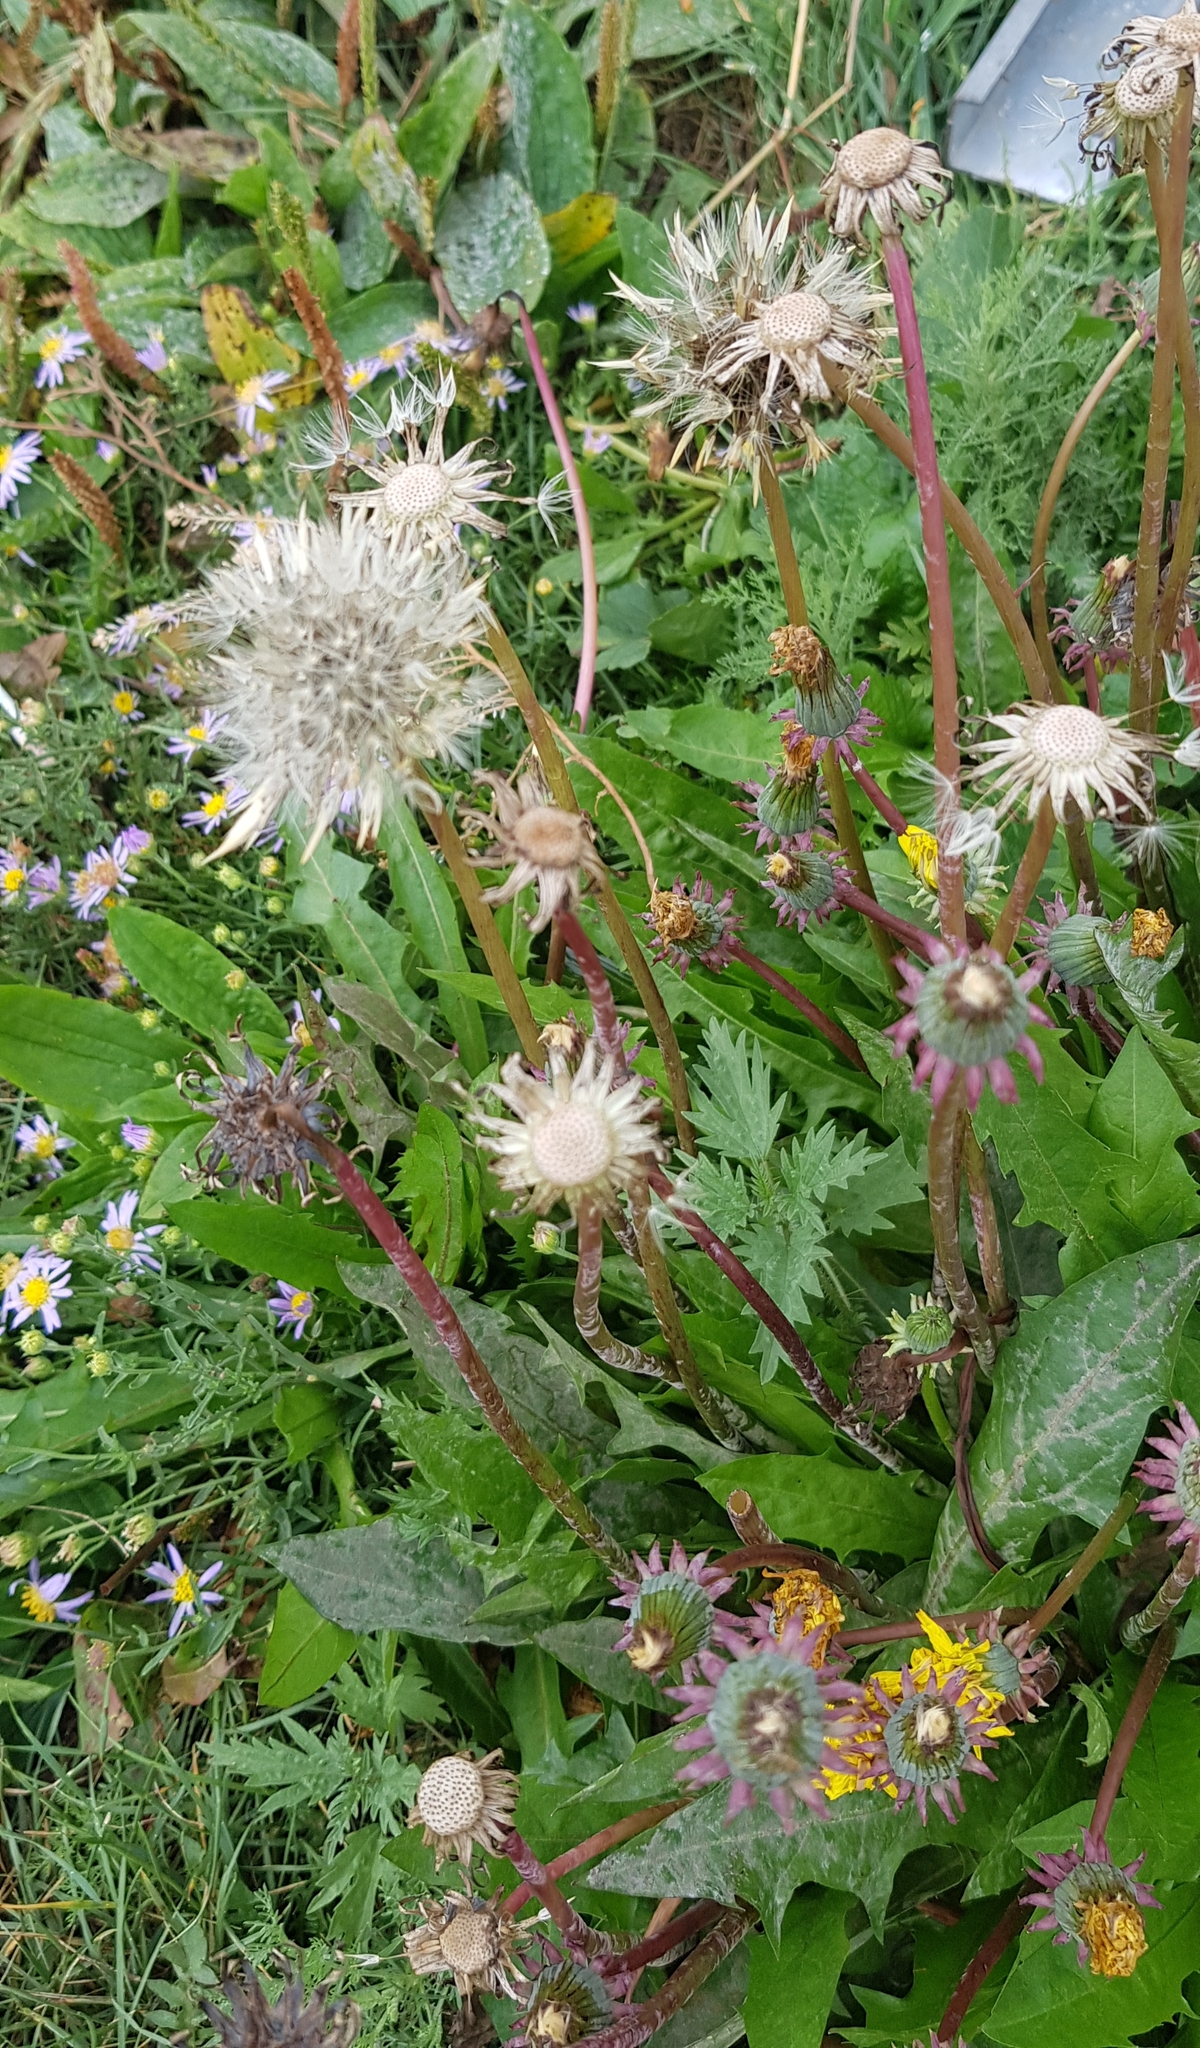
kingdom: Plantae
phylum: Tracheophyta
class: Magnoliopsida
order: Asterales
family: Asteraceae
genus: Taraxacum
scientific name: Taraxacum officinale
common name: Common dandelion
